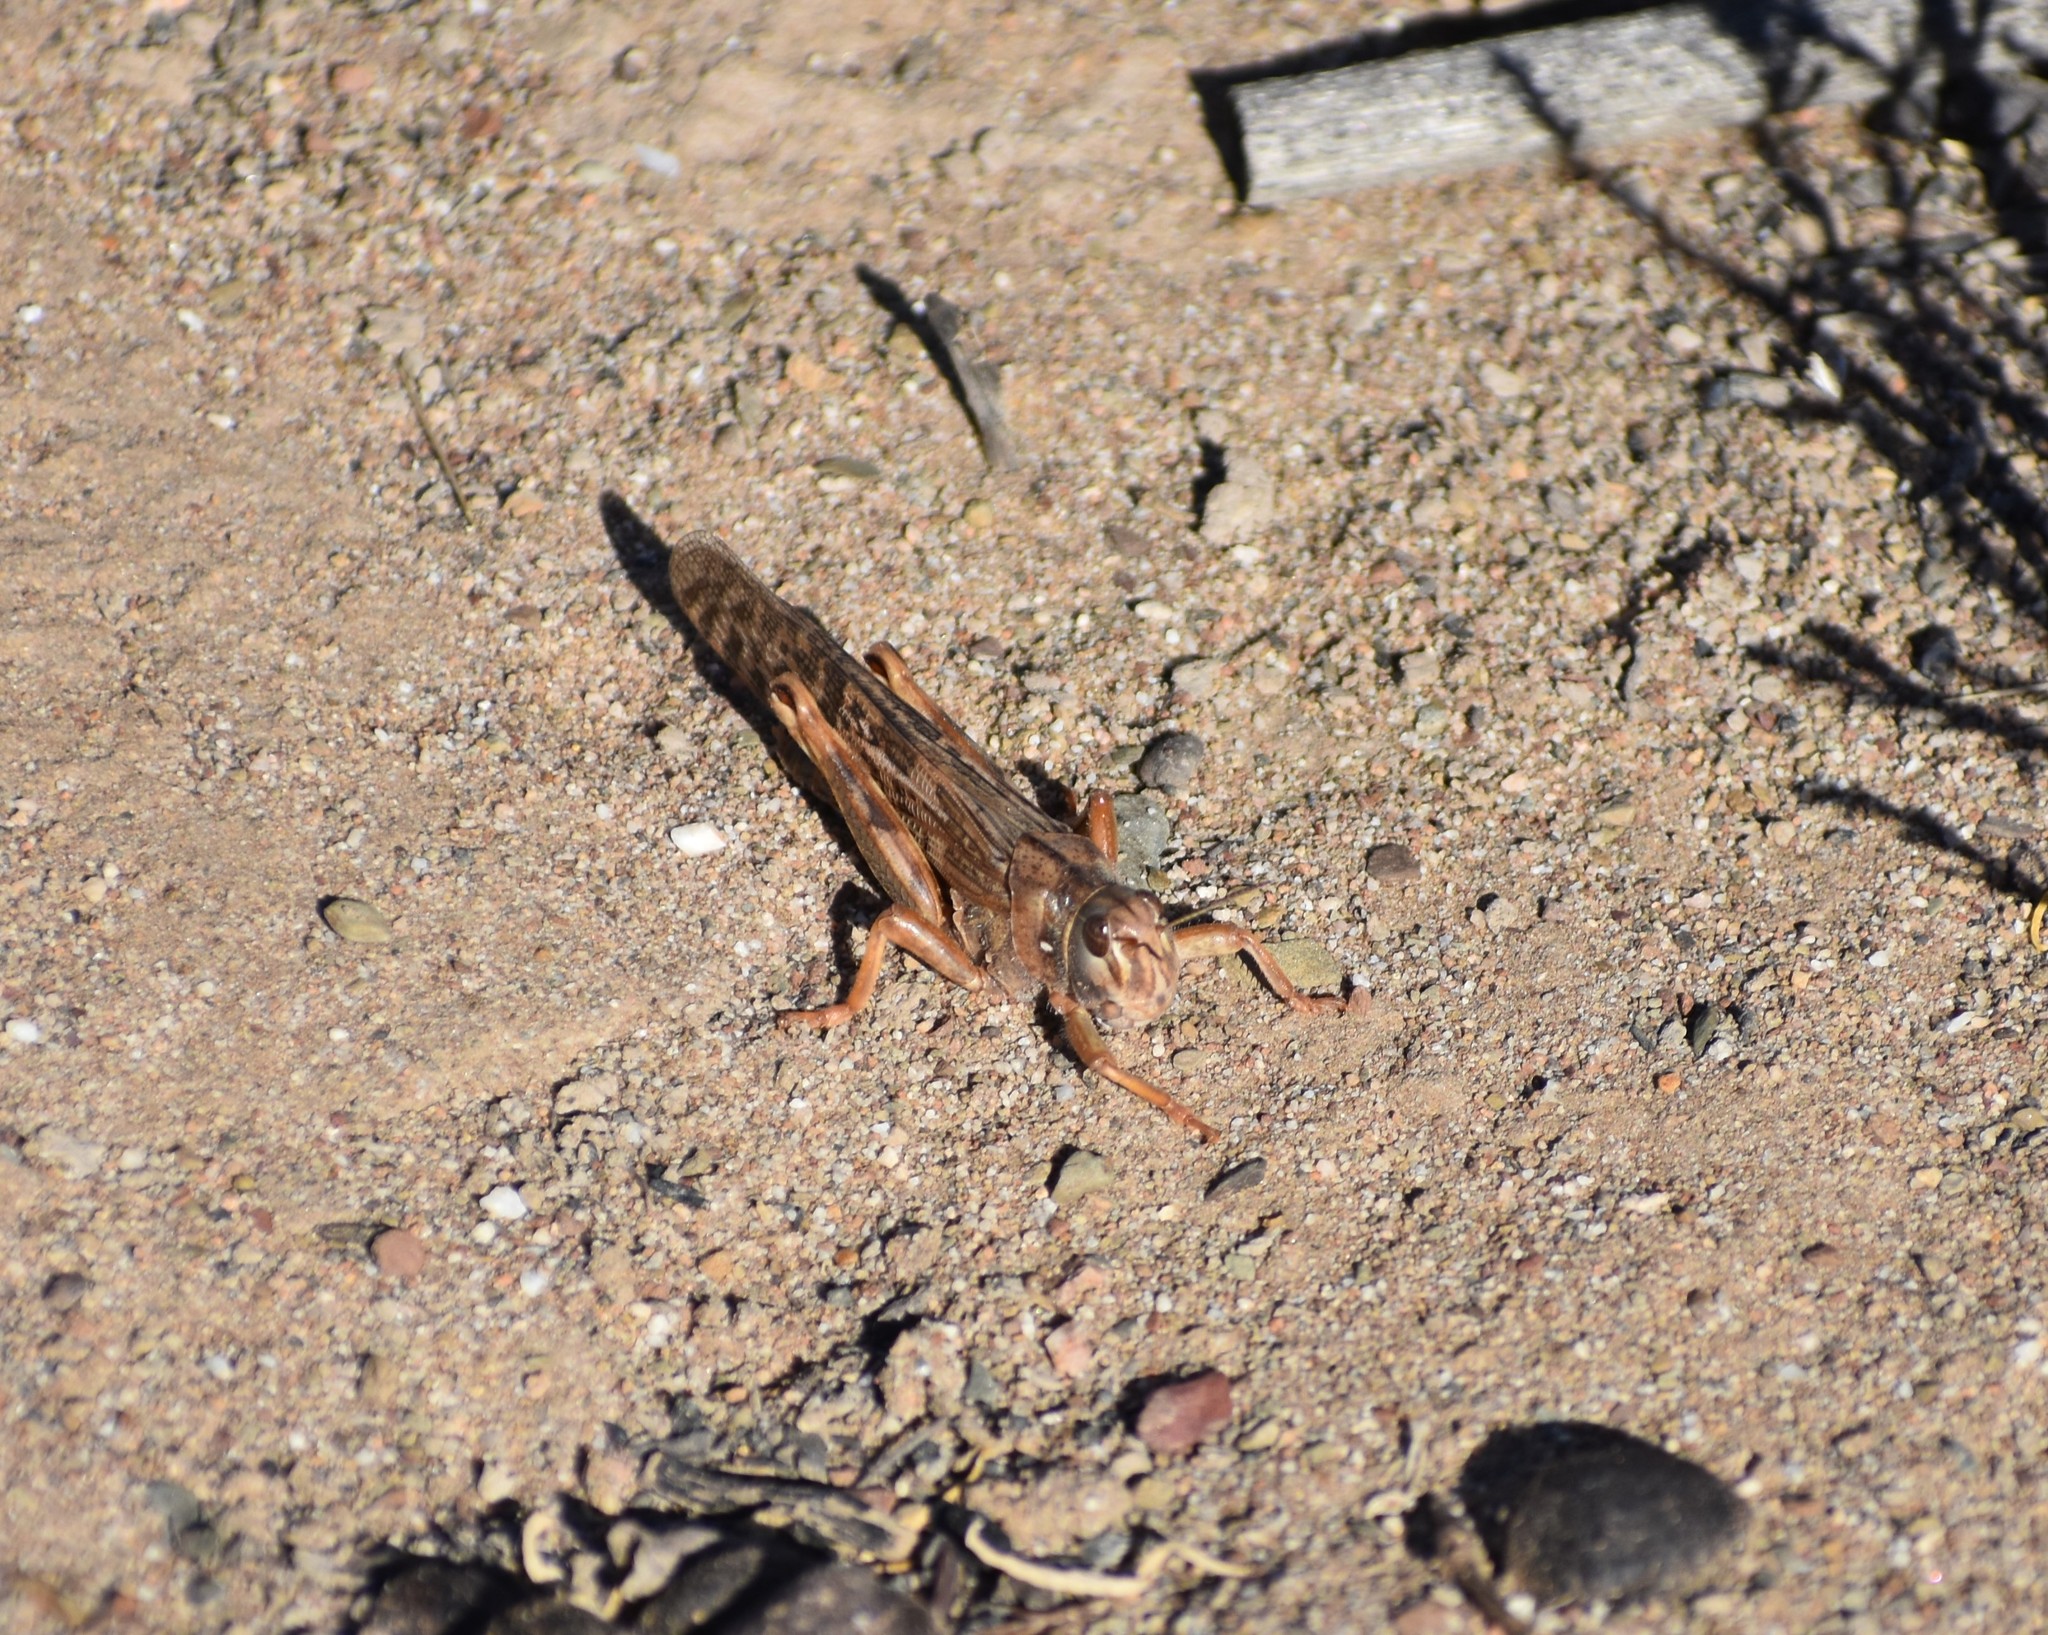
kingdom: Animalia
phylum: Arthropoda
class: Insecta
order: Orthoptera
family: Acrididae
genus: Locustana
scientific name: Locustana pardalina
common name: Brown locust
